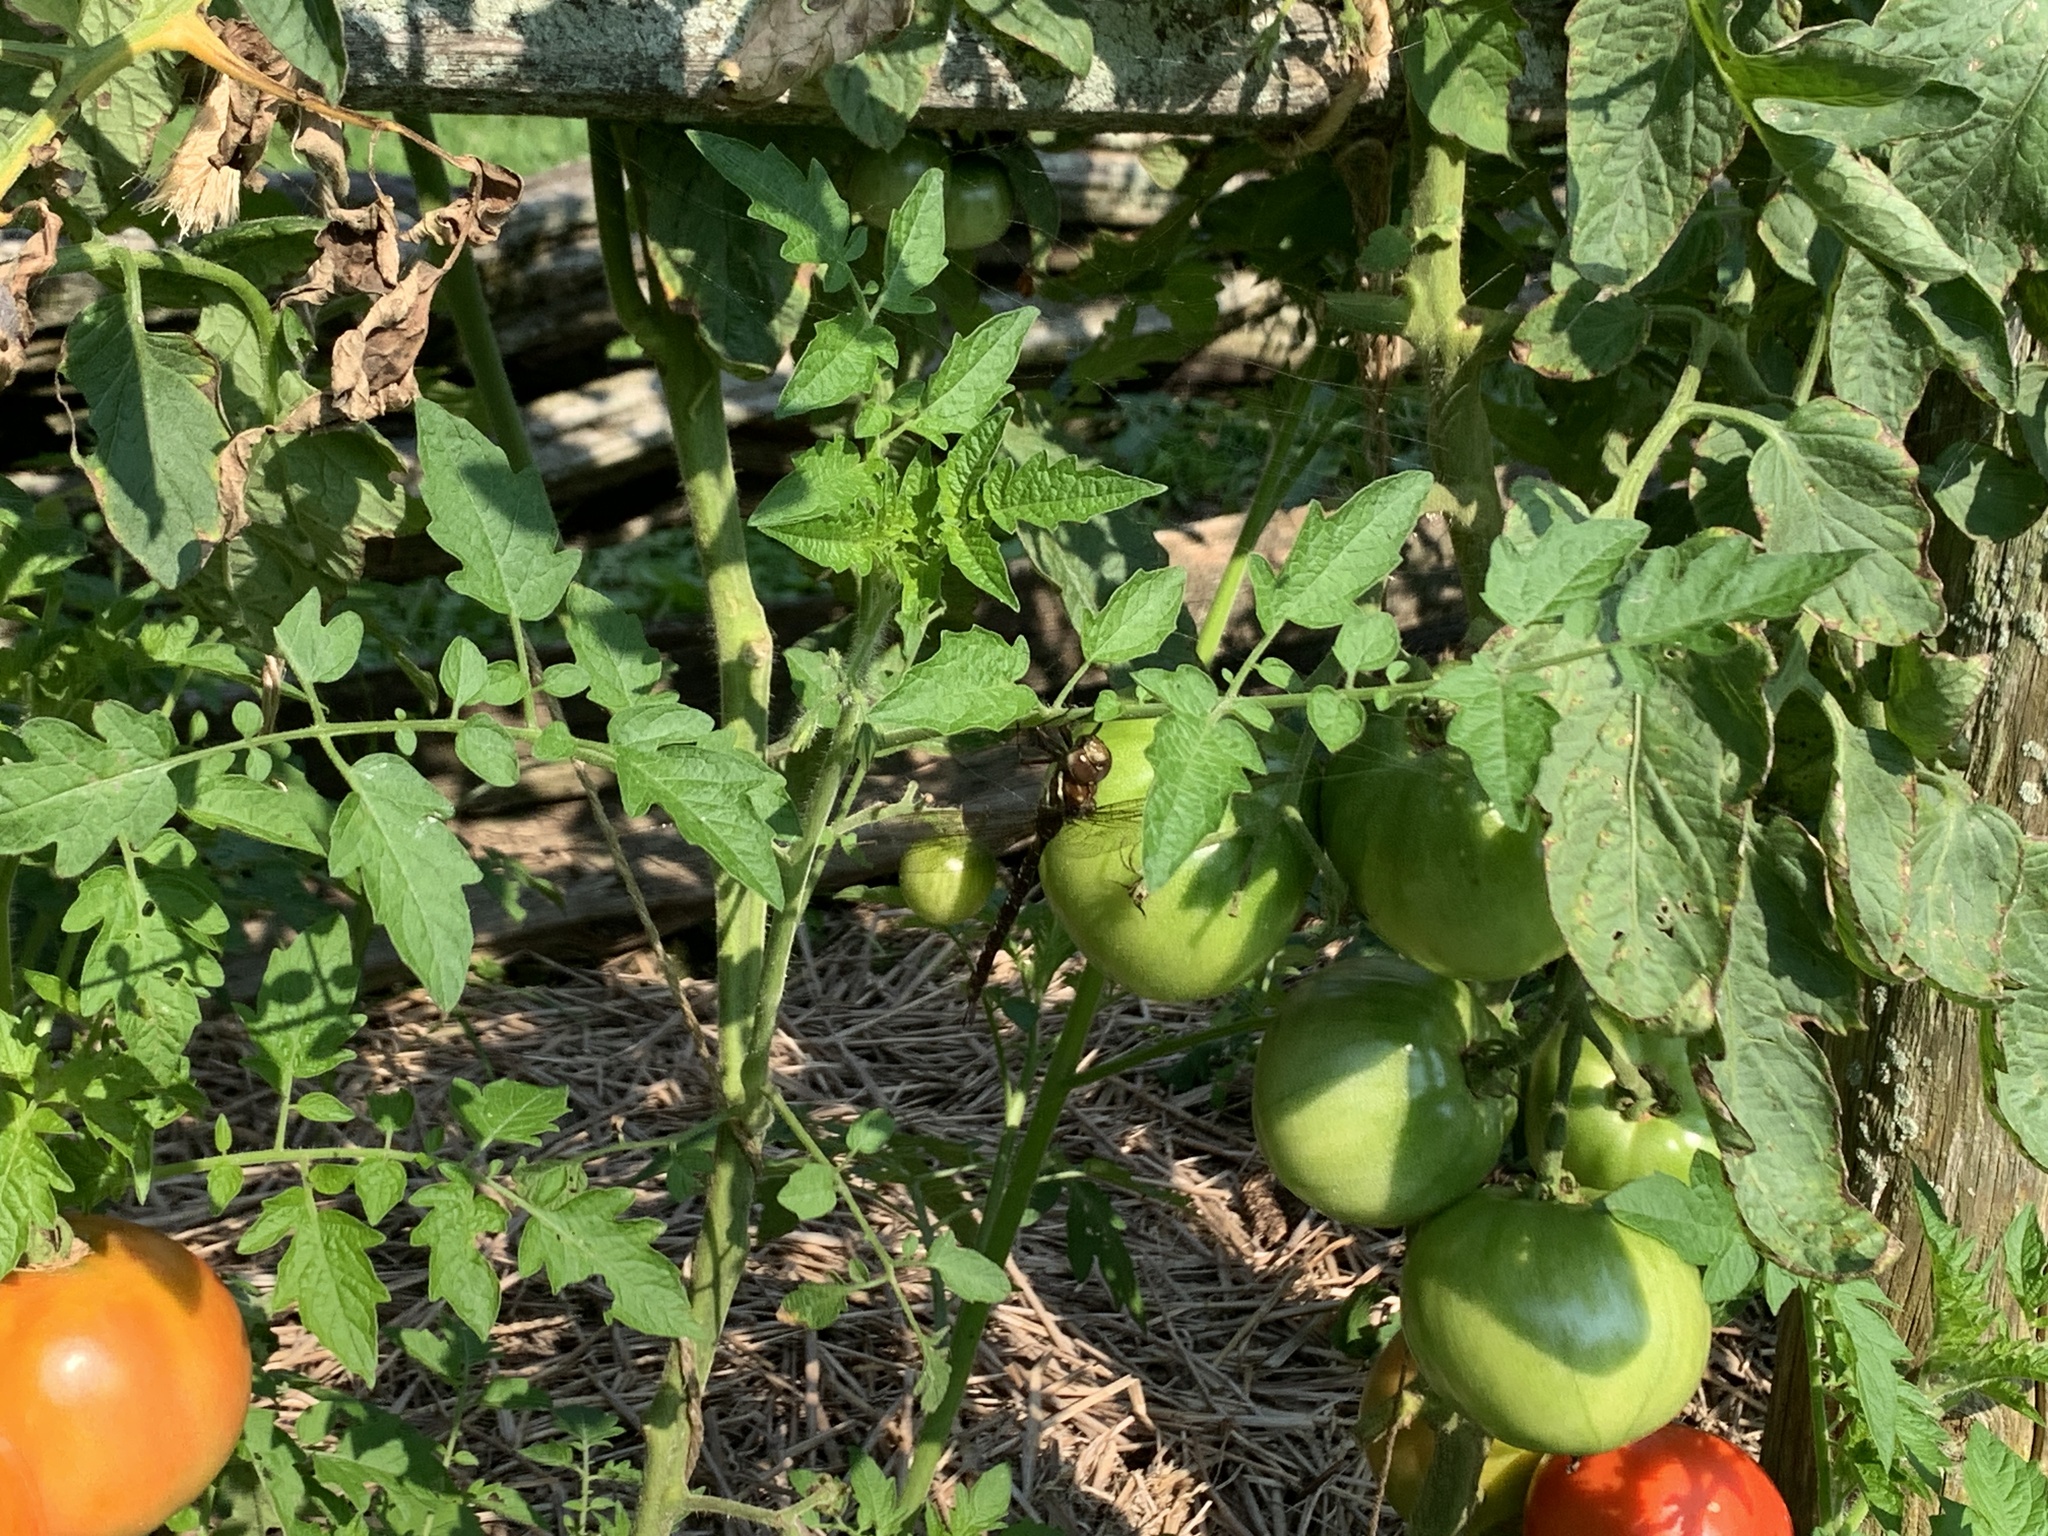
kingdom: Animalia
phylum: Arthropoda
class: Insecta
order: Odonata
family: Aeshnidae
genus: Aeshna
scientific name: Aeshna umbrosa
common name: Shadow darner
